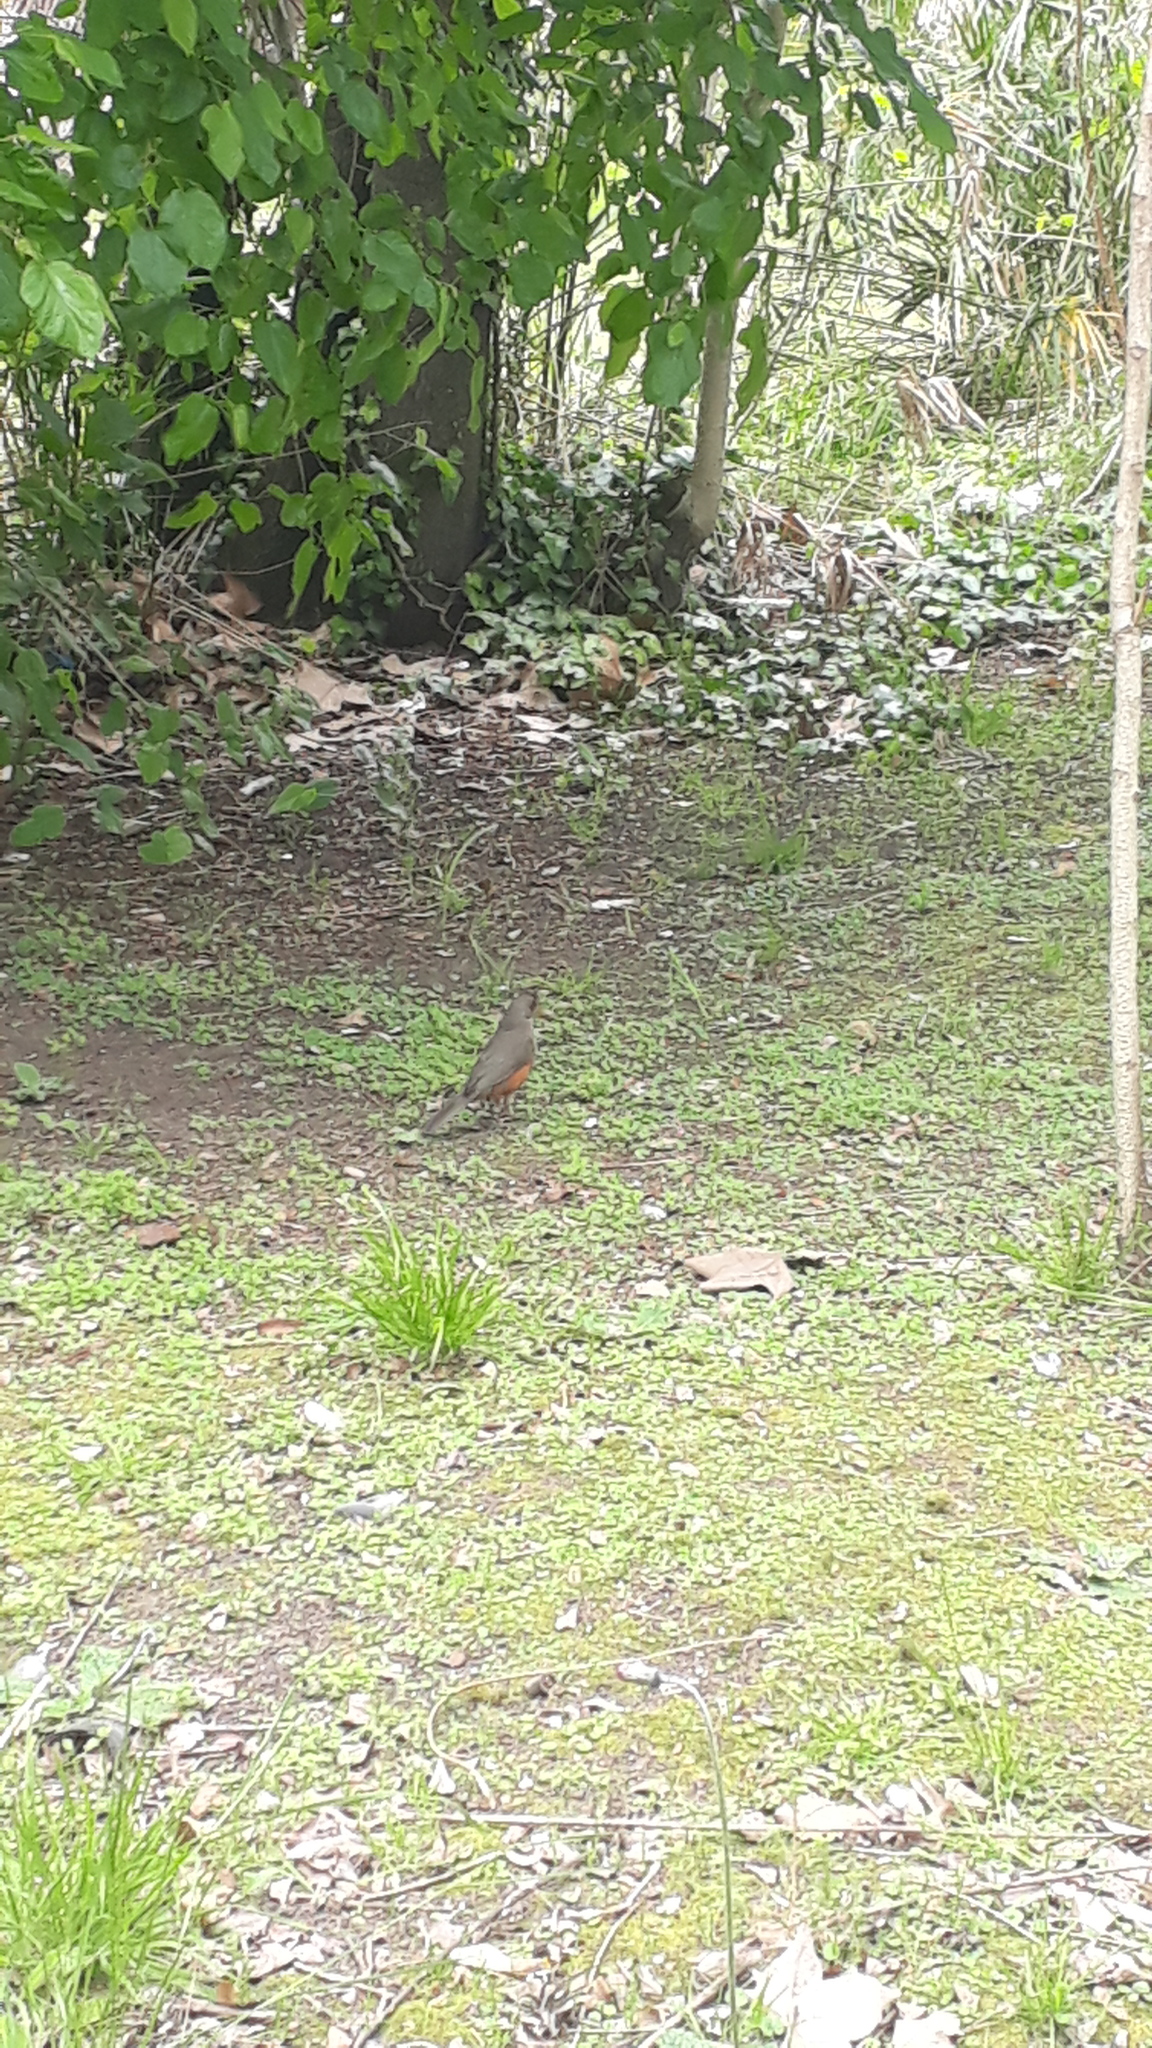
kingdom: Animalia
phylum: Chordata
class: Aves
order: Passeriformes
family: Turdidae
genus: Turdus
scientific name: Turdus rufiventris
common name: Rufous-bellied thrush
